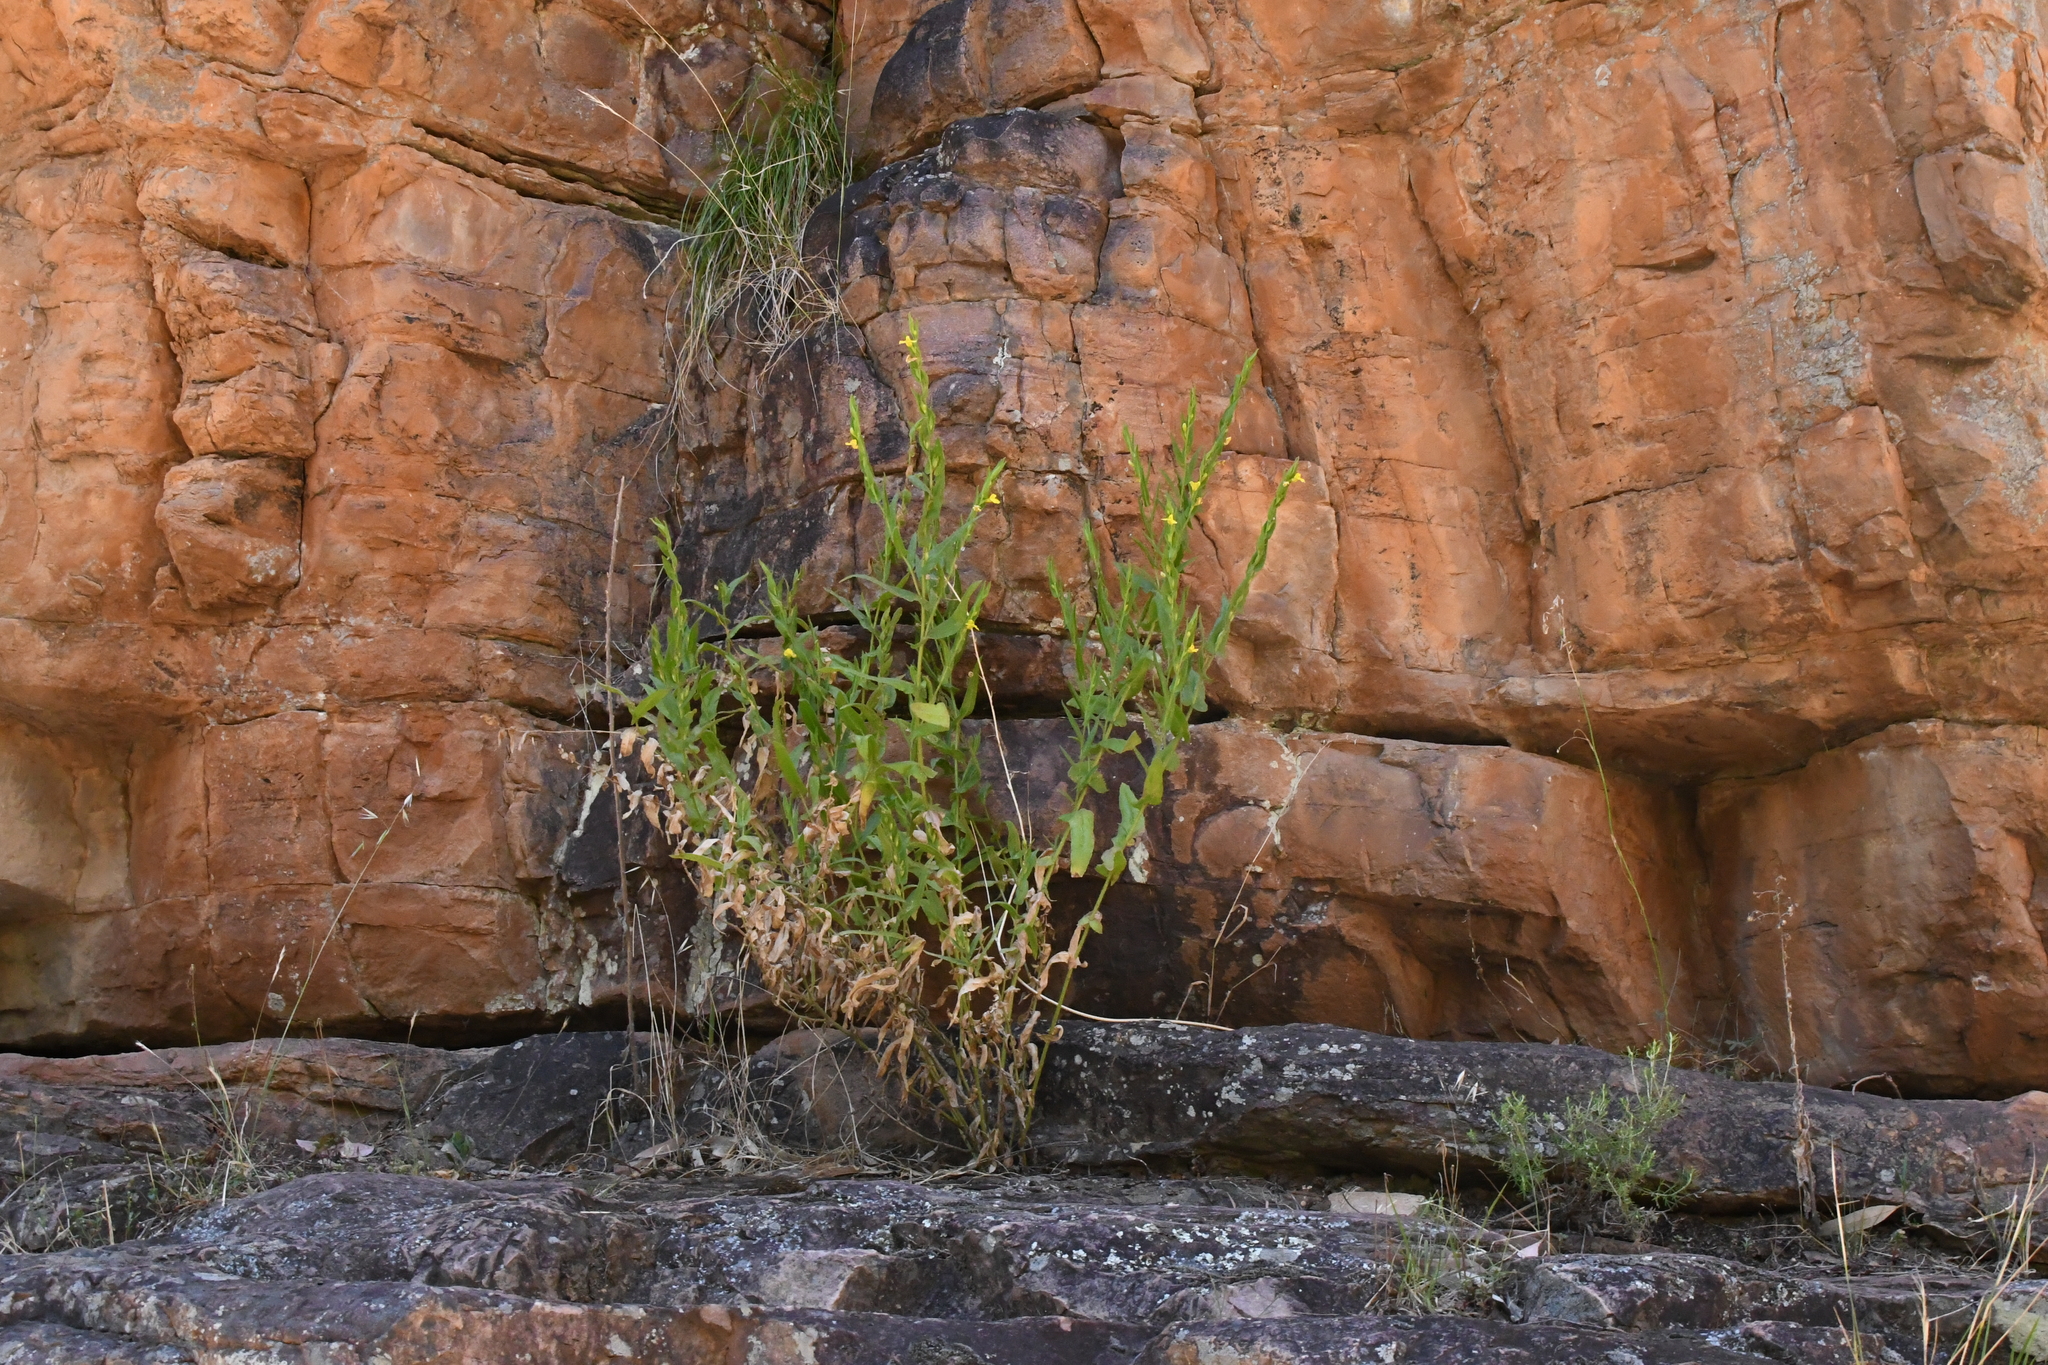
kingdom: Plantae
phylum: Tracheophyta
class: Magnoliopsida
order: Asterales
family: Goodeniaceae
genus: Goodenia
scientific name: Goodenia ovata
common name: Hop goodenia
